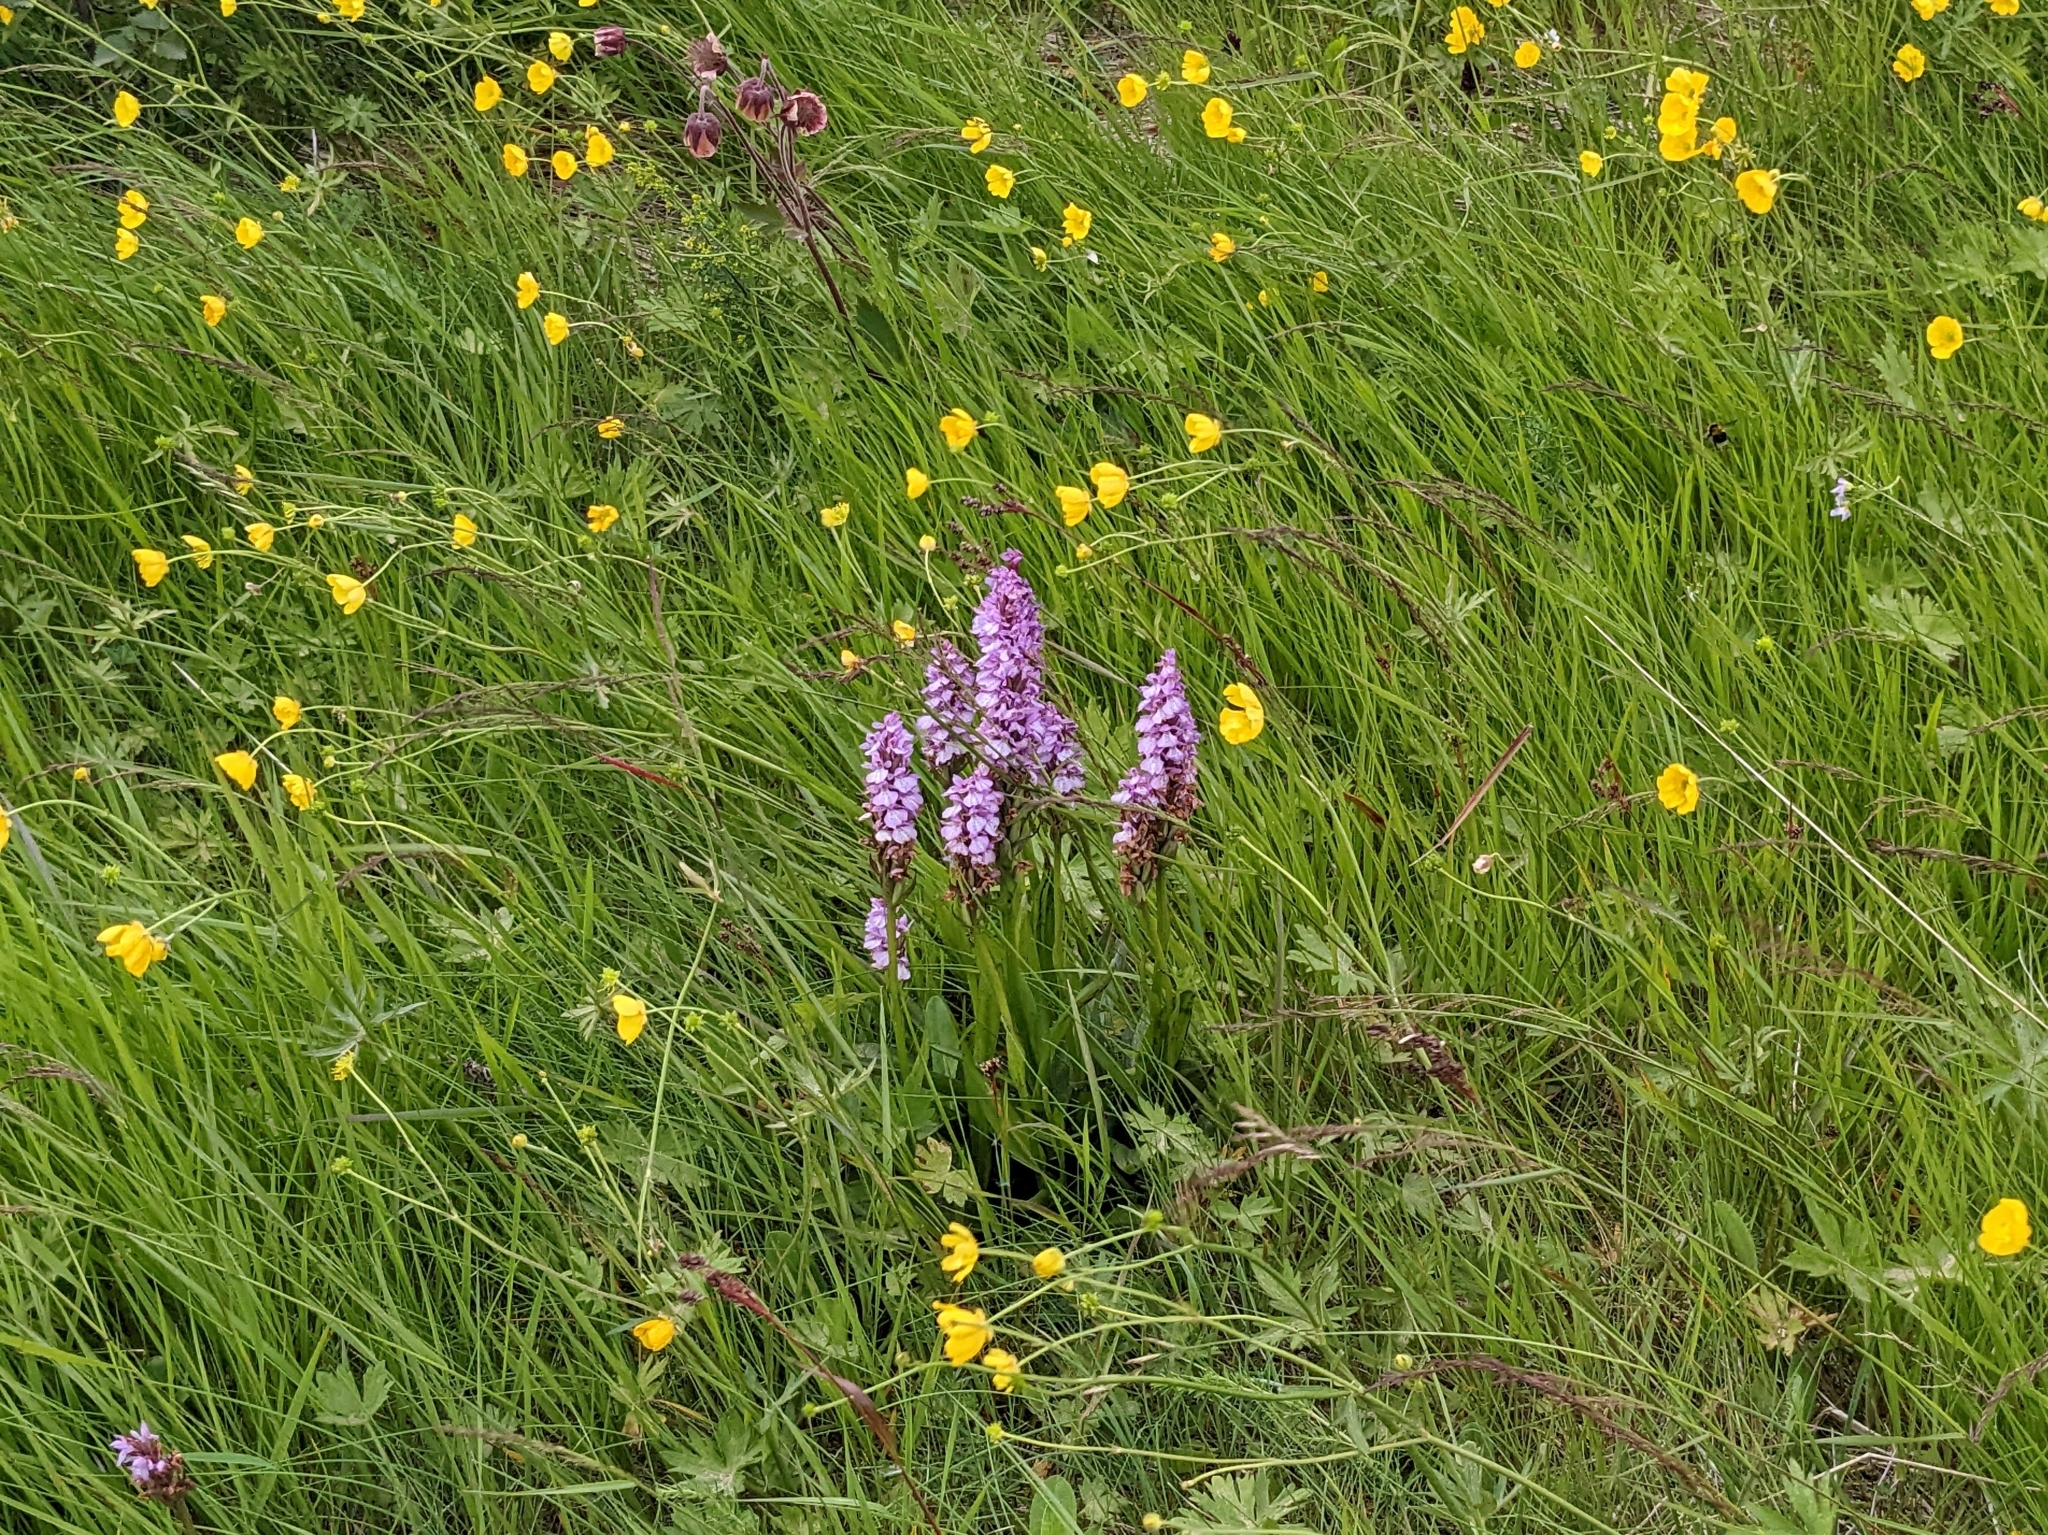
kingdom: Plantae
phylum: Tracheophyta
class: Liliopsida
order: Asparagales
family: Orchidaceae
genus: Dactylorhiza
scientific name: Dactylorhiza maculata
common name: Heath spotted-orchid
